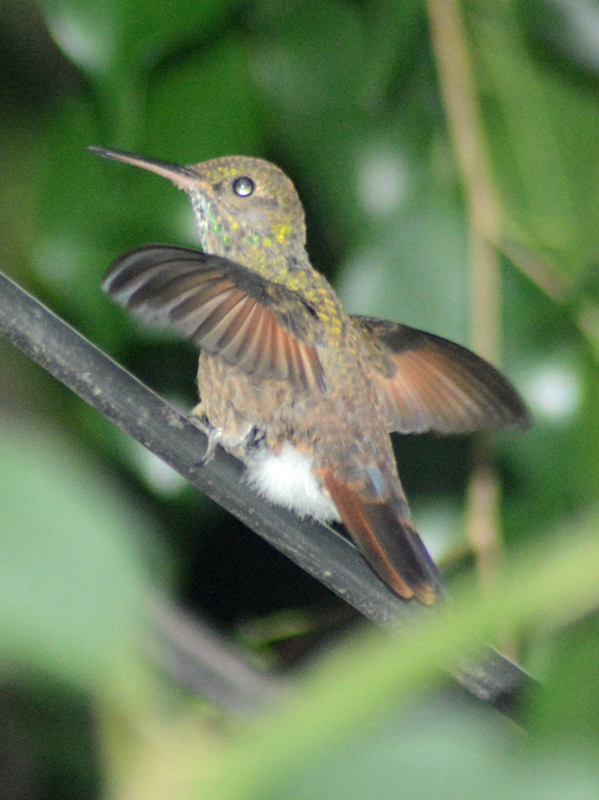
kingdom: Animalia
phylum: Chordata
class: Aves
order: Apodiformes
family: Trochilidae
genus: Saucerottia
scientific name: Saucerottia beryllina
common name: Berylline hummingbird
